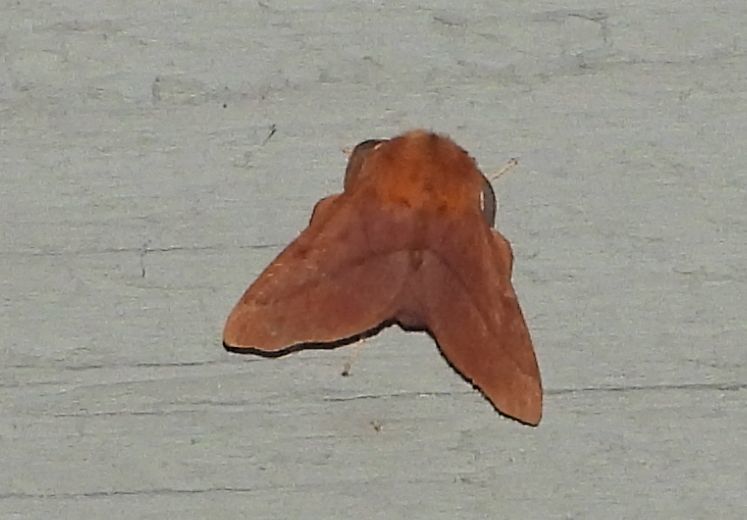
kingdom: Animalia
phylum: Arthropoda
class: Insecta
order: Lepidoptera
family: Lasiocampidae
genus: Malacosoma
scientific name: Malacosoma disstria
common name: Forest tent caterpillar
